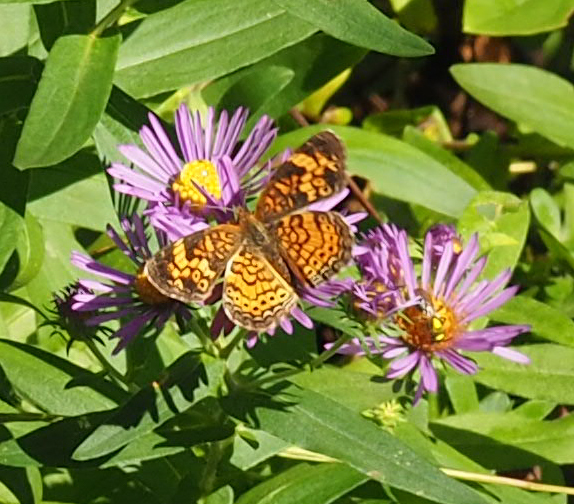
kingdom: Animalia
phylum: Arthropoda
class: Insecta
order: Lepidoptera
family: Nymphalidae
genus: Phyciodes
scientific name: Phyciodes tharos
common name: Pearl crescent
